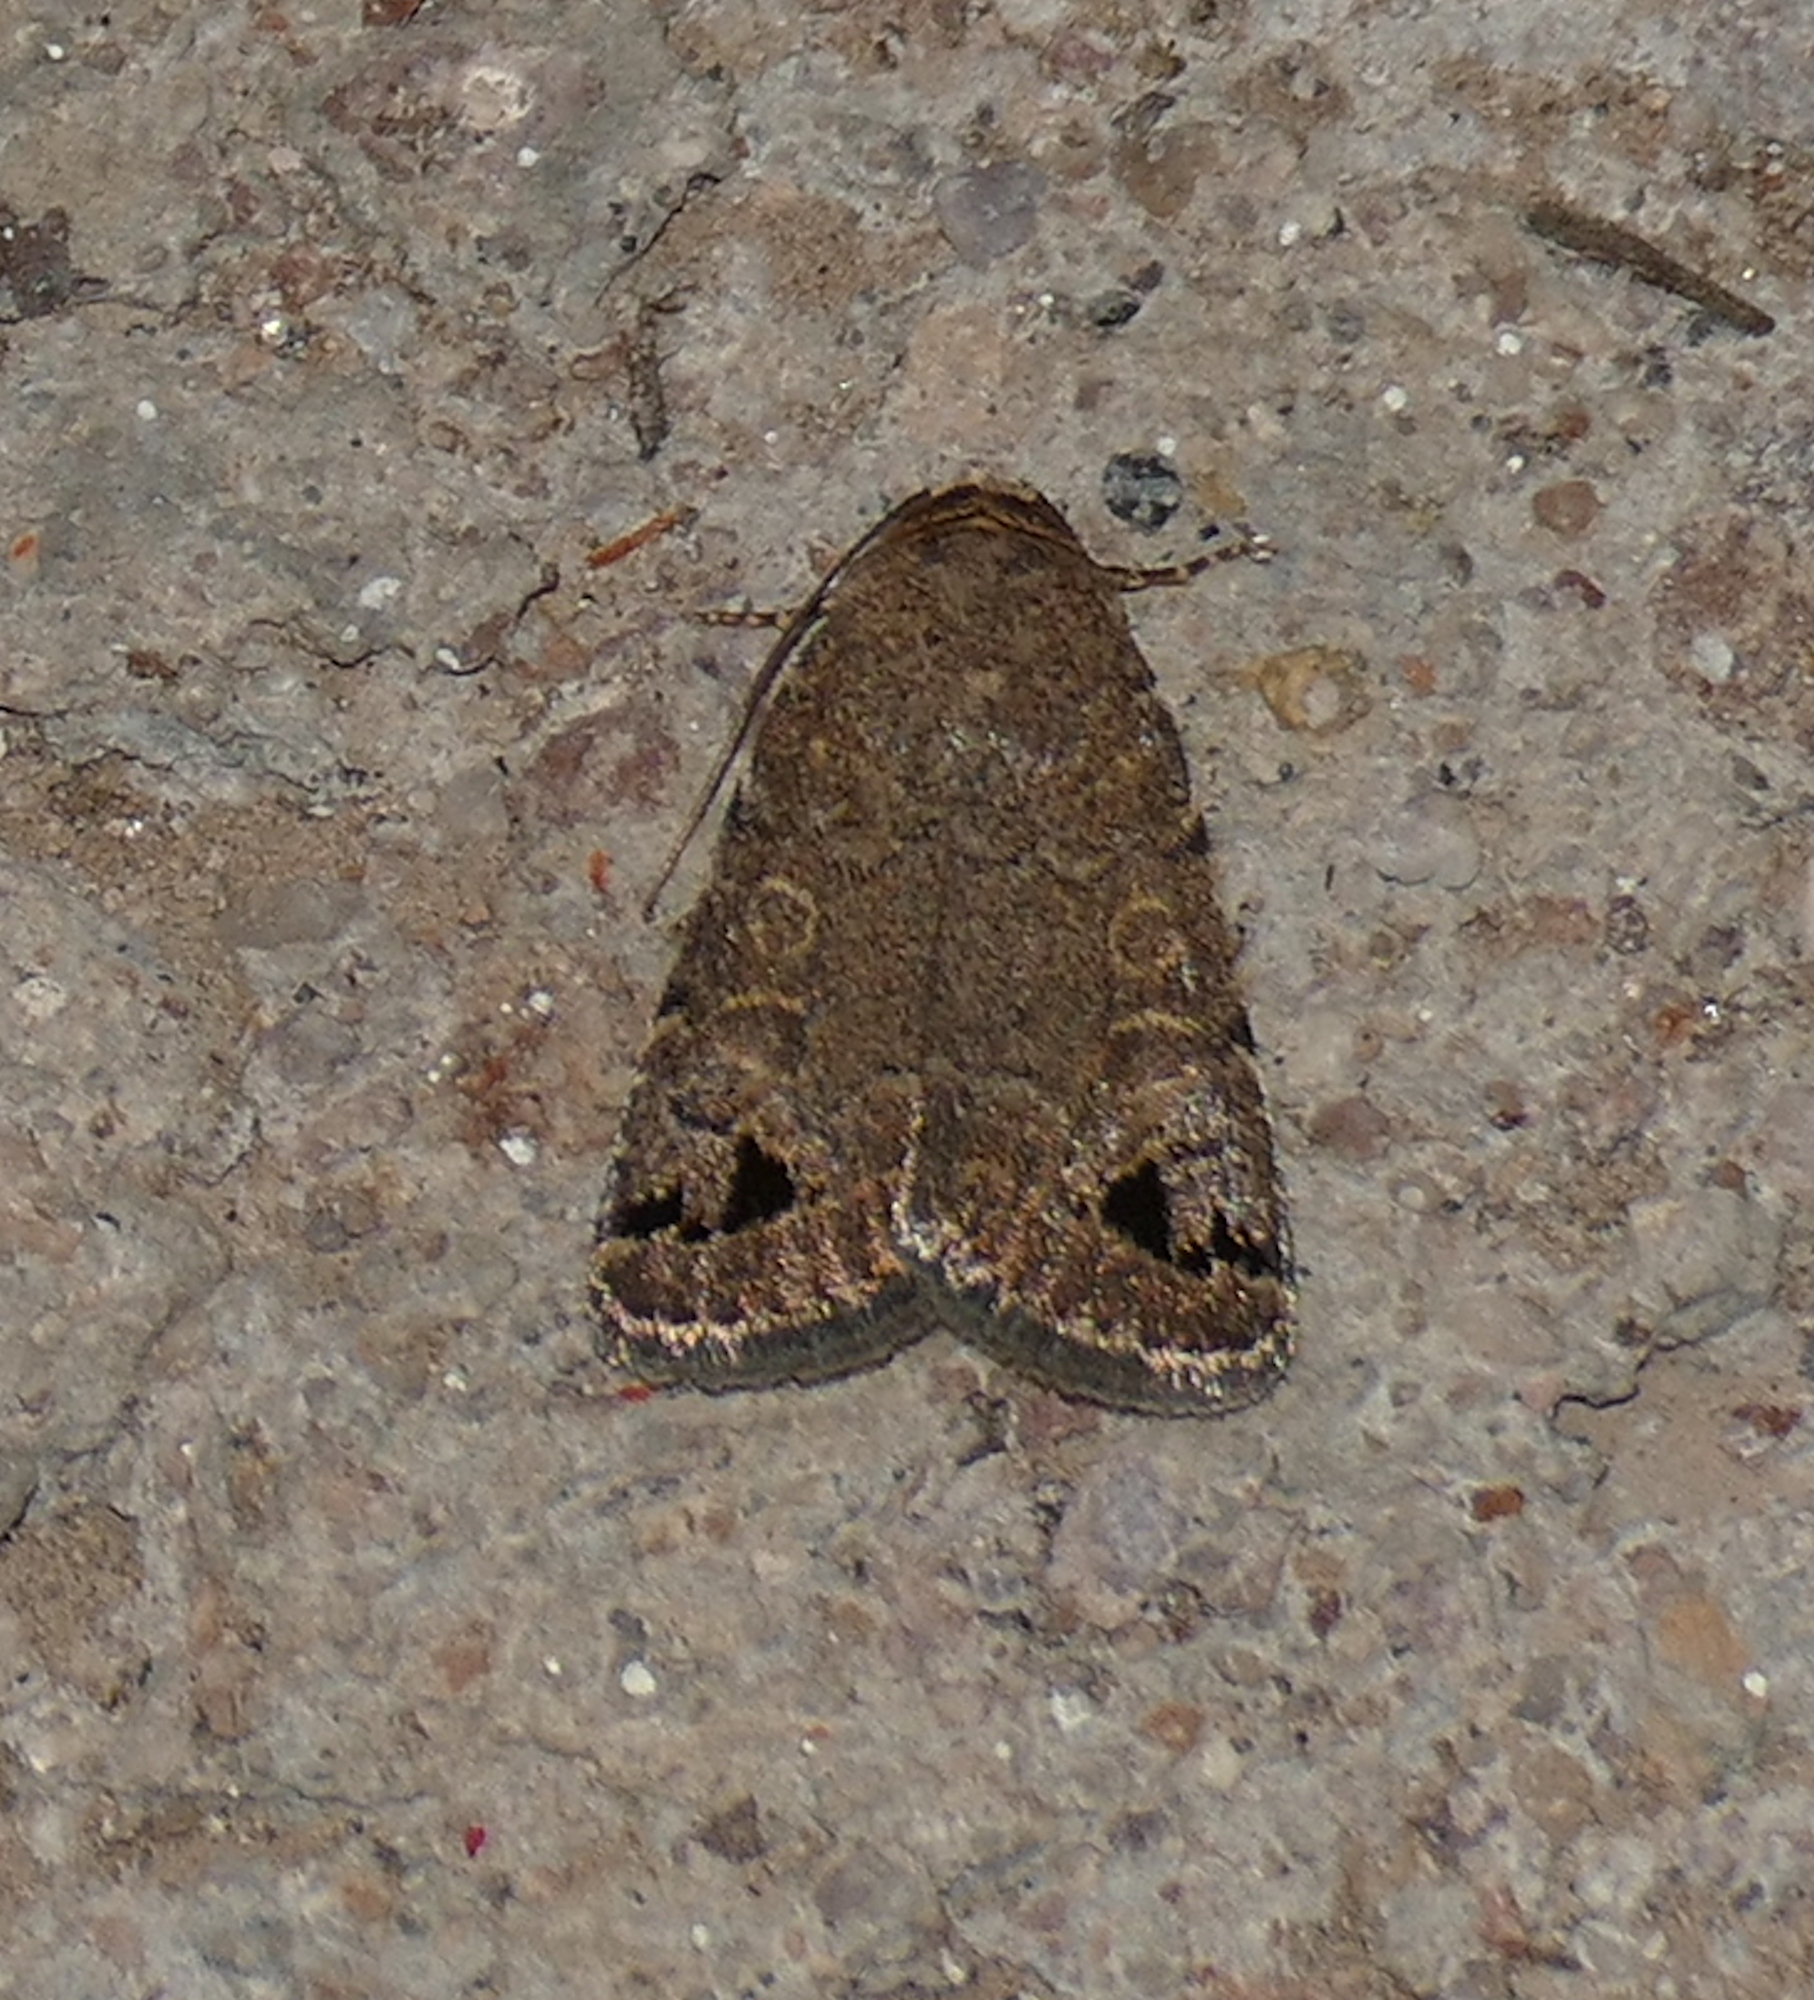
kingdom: Animalia
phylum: Arthropoda
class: Insecta
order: Lepidoptera
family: Noctuidae
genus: Anorthodes
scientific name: Anorthodes triquetra
